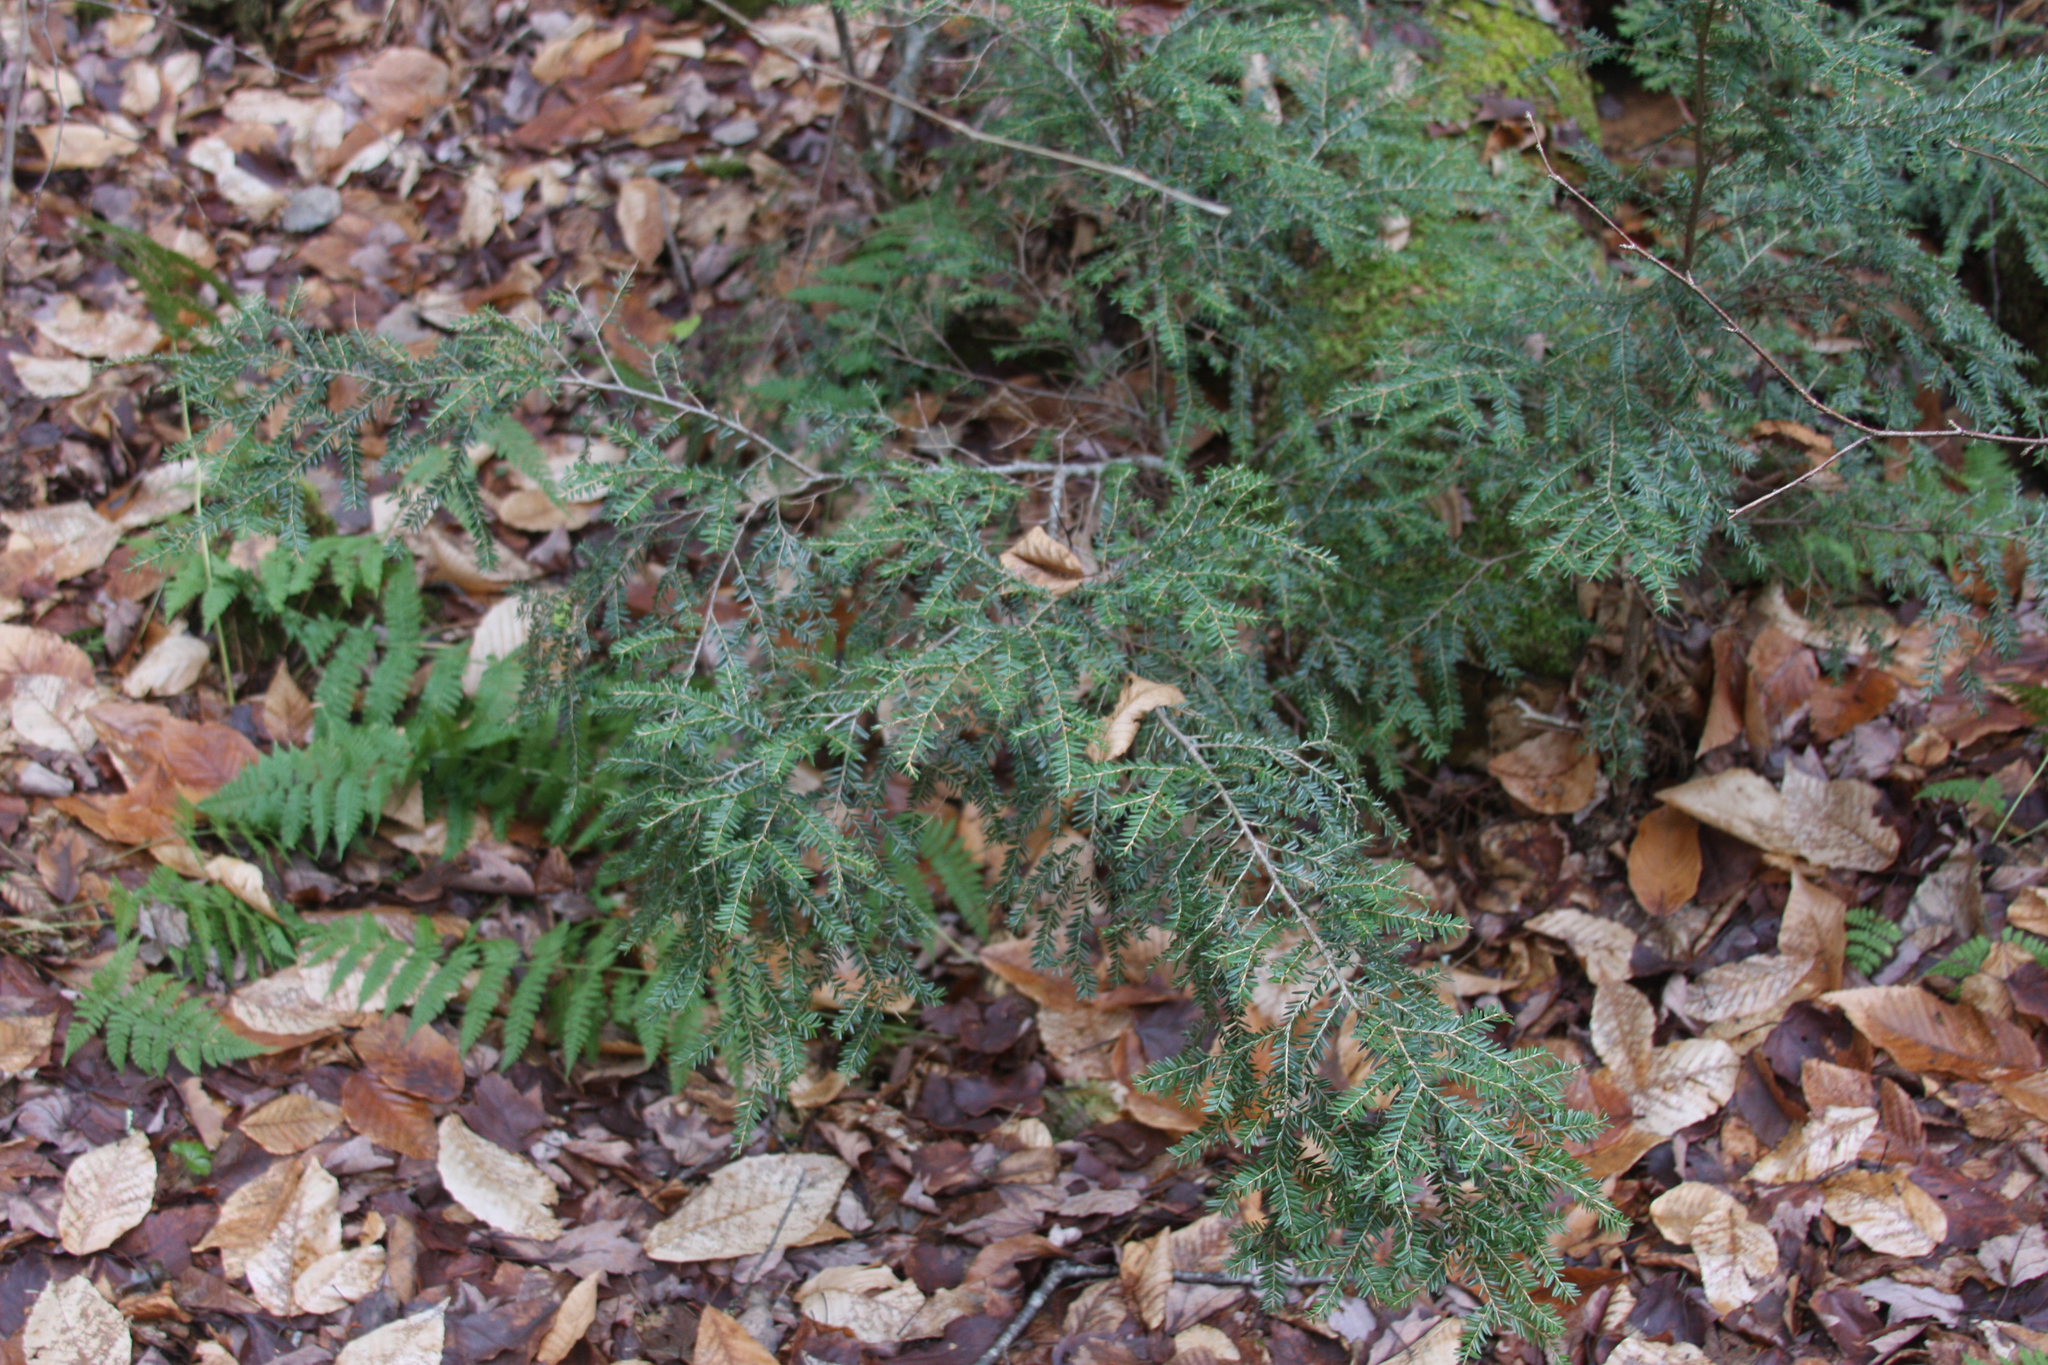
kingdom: Plantae
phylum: Tracheophyta
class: Pinopsida
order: Pinales
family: Pinaceae
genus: Tsuga
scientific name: Tsuga canadensis
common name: Eastern hemlock
